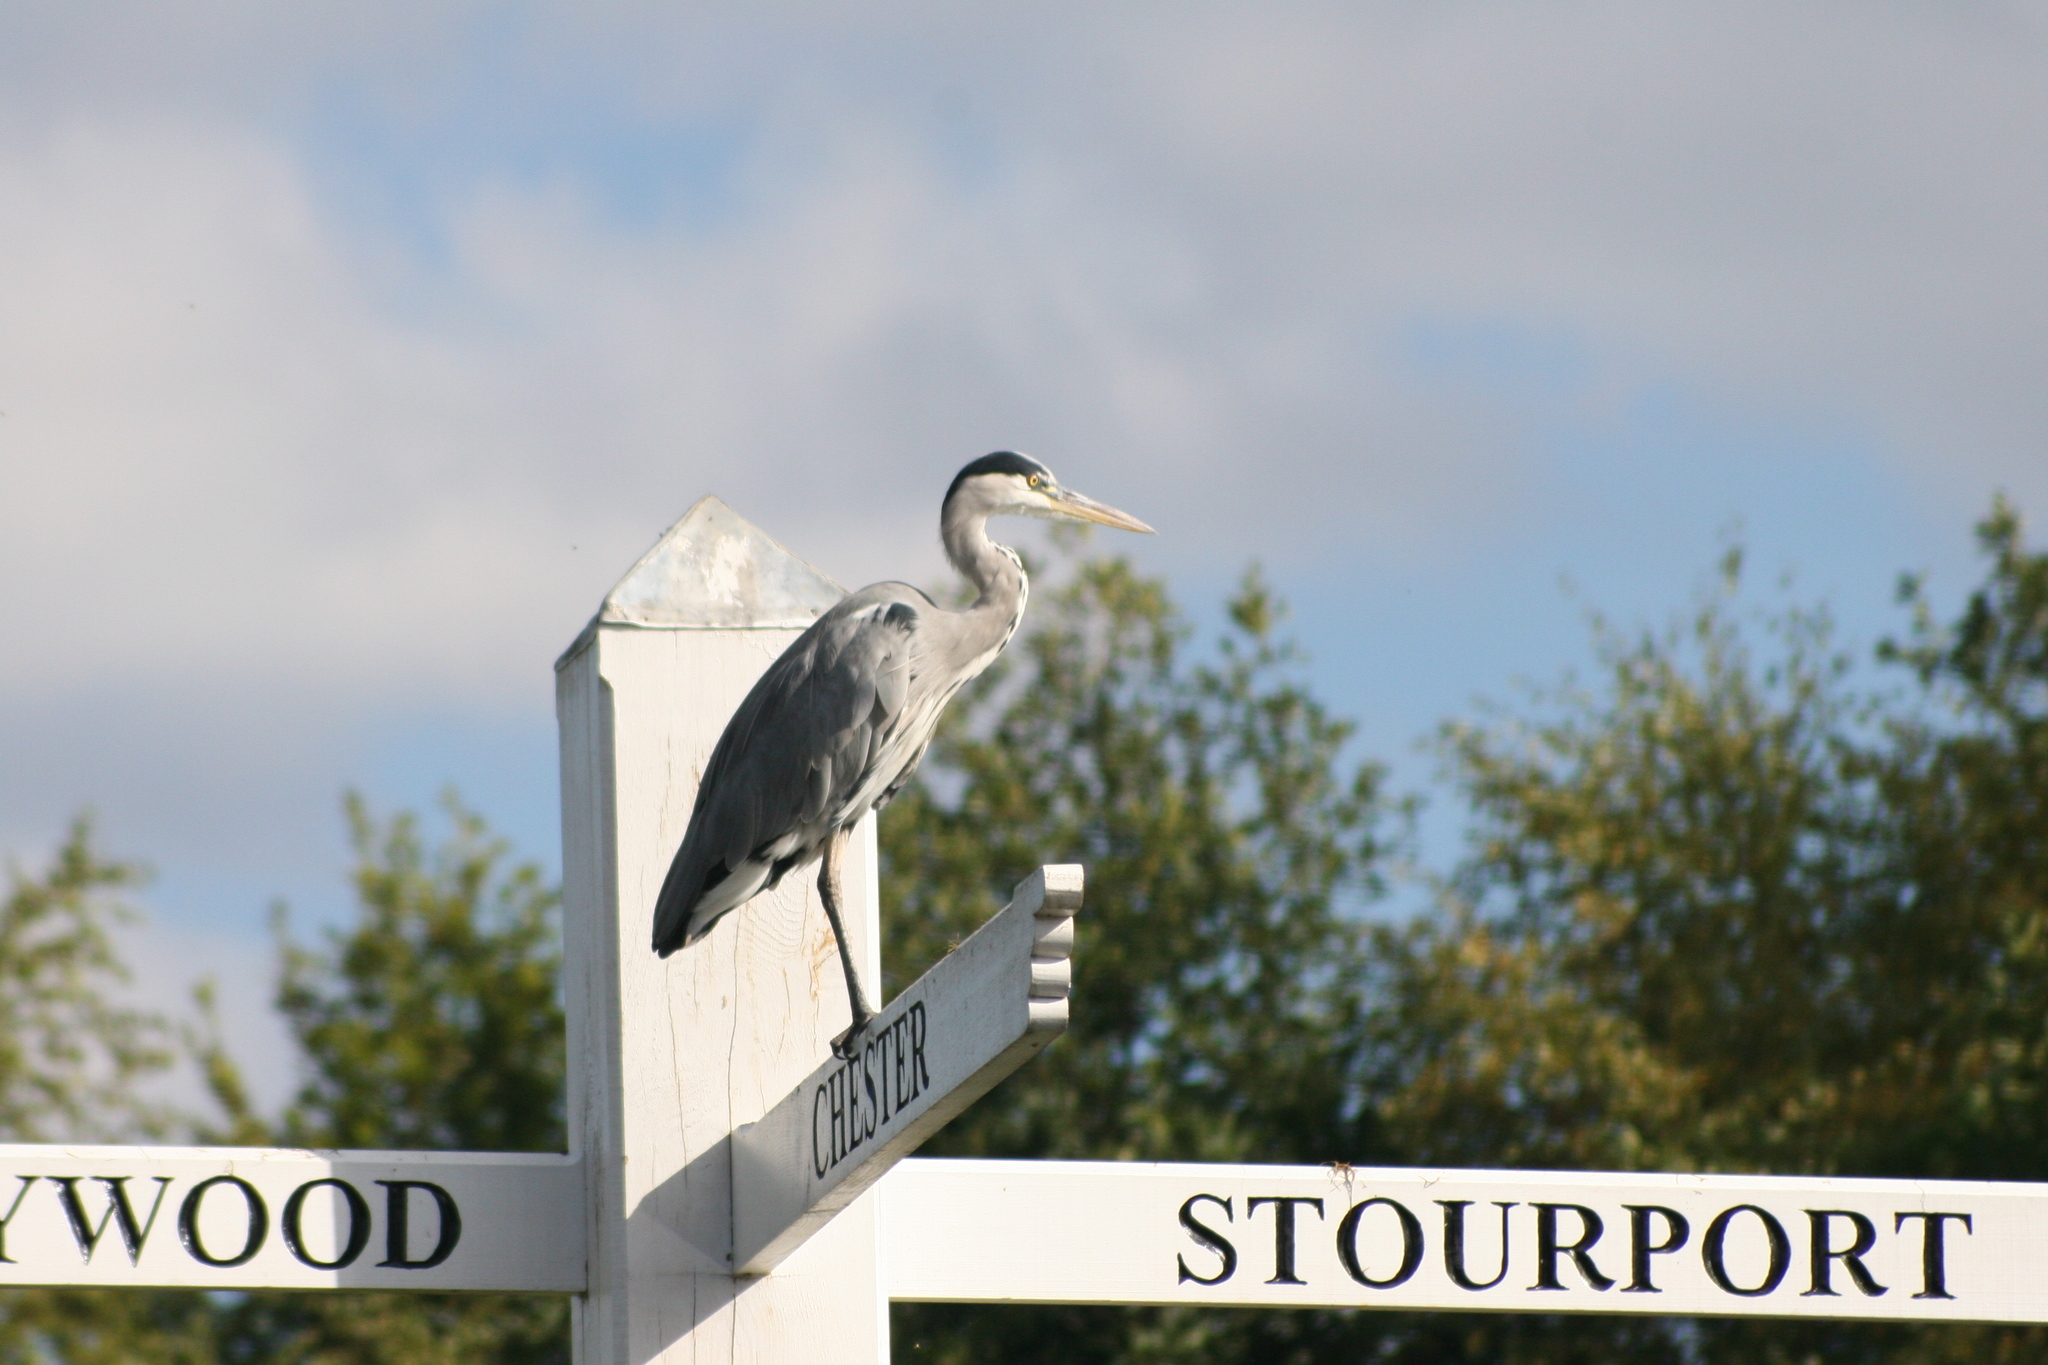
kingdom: Animalia
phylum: Chordata
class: Aves
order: Pelecaniformes
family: Ardeidae
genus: Ardea
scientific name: Ardea cinerea
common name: Grey heron
